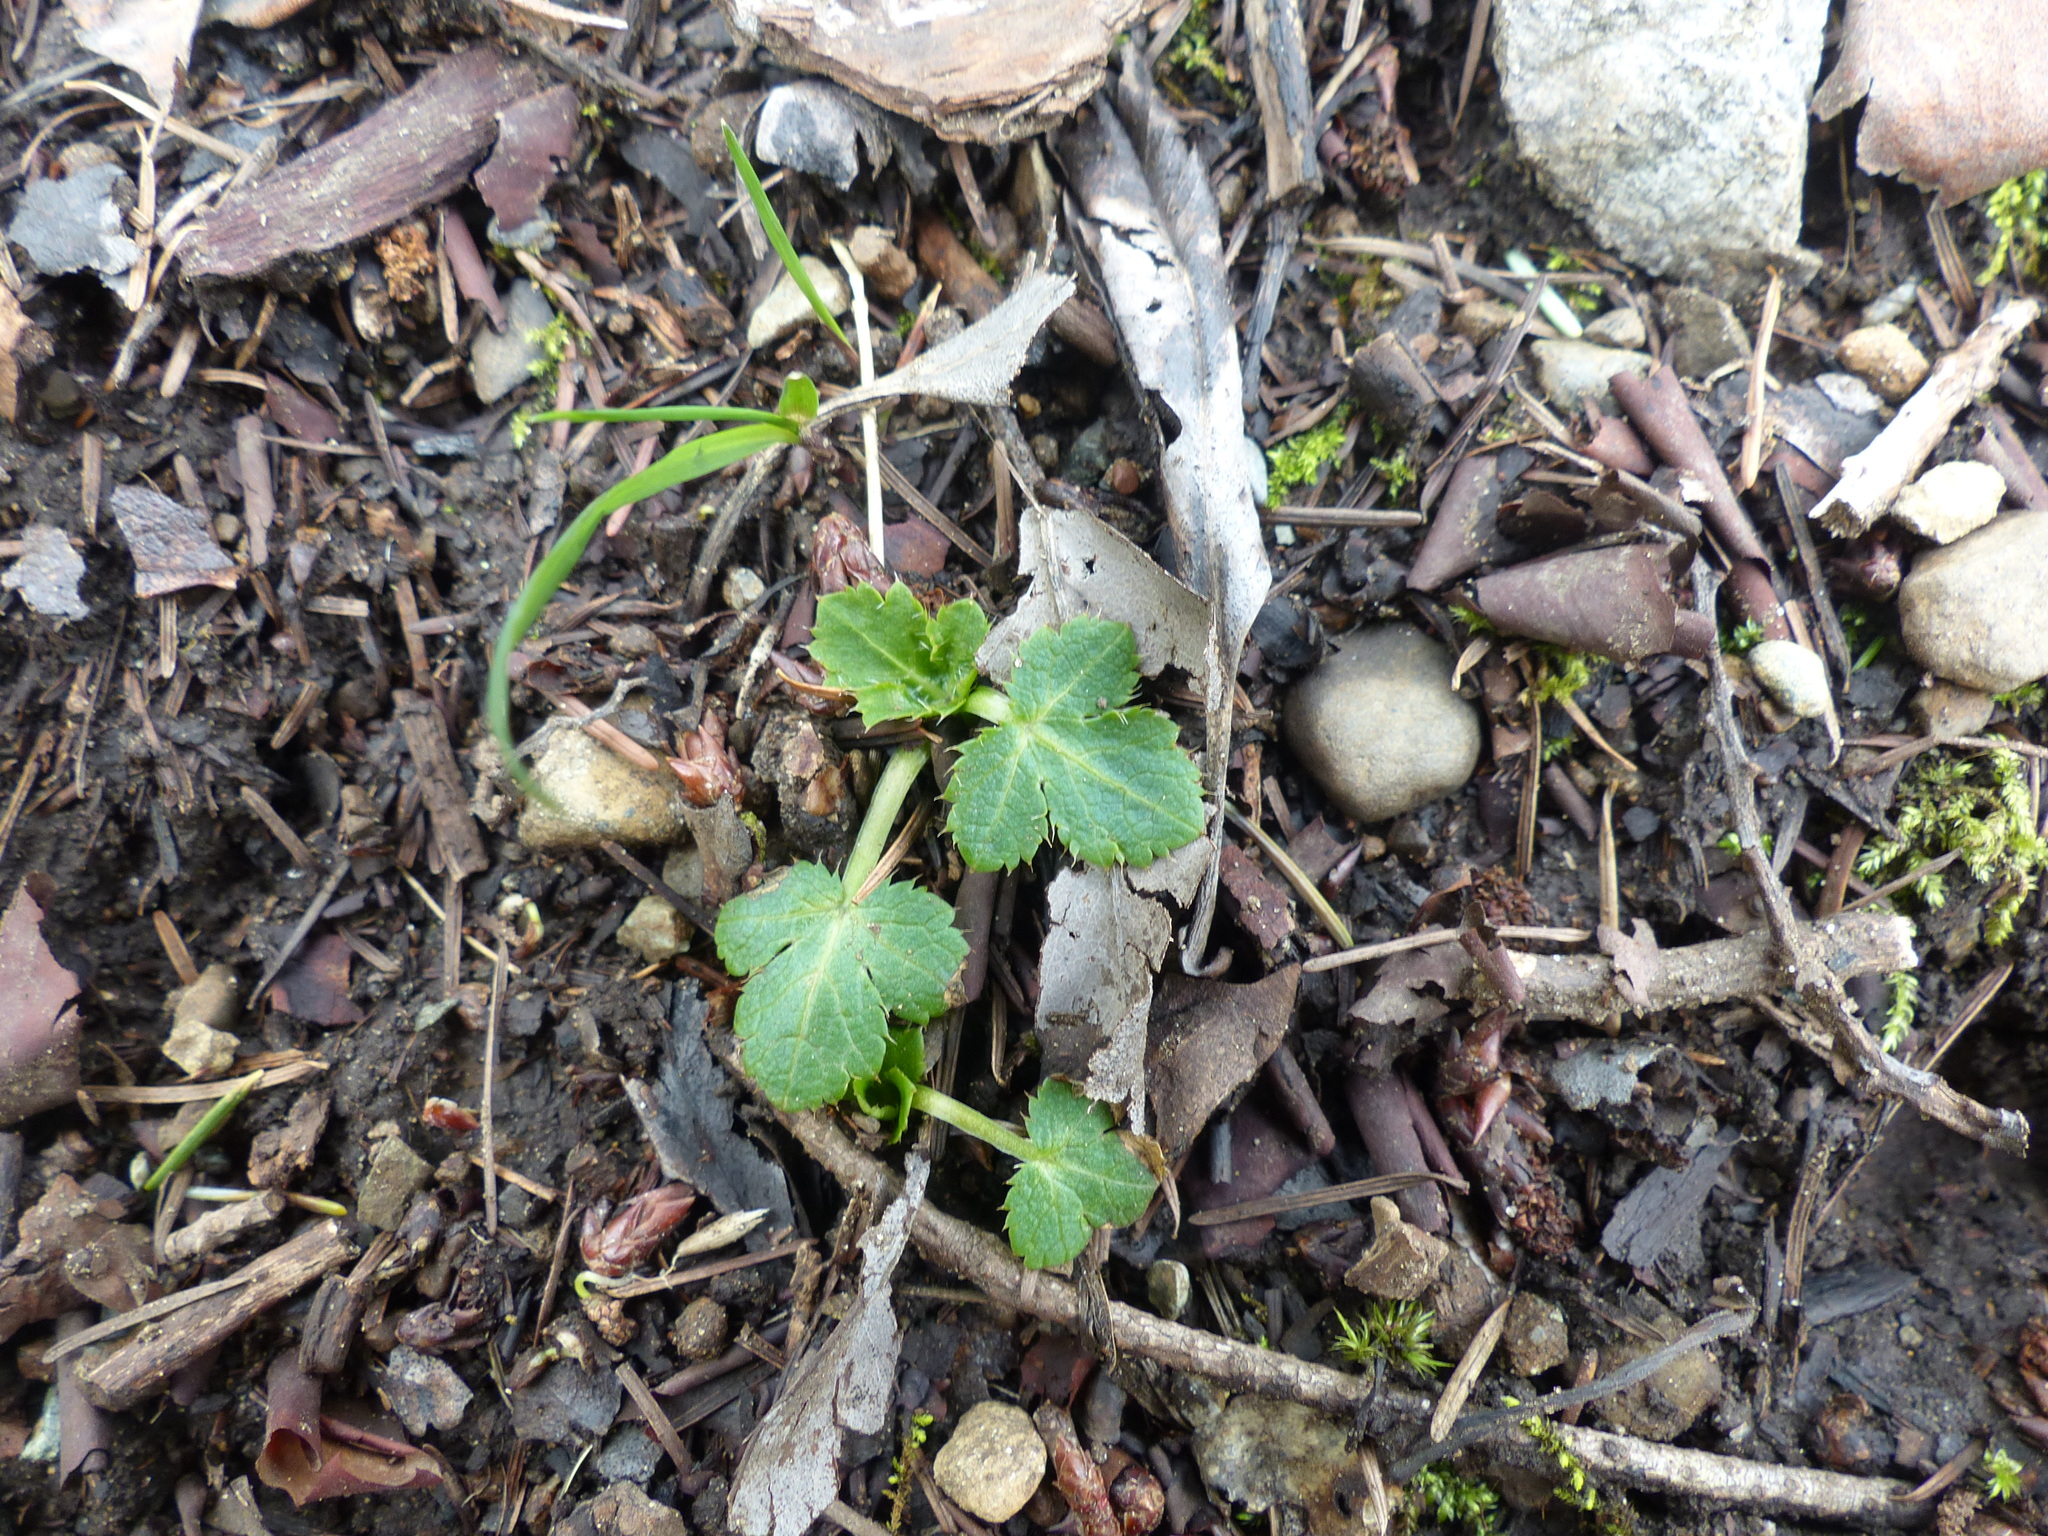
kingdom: Plantae
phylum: Tracheophyta
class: Magnoliopsida
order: Apiales
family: Apiaceae
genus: Sanicula
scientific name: Sanicula crassicaulis
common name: Western snakeroot
